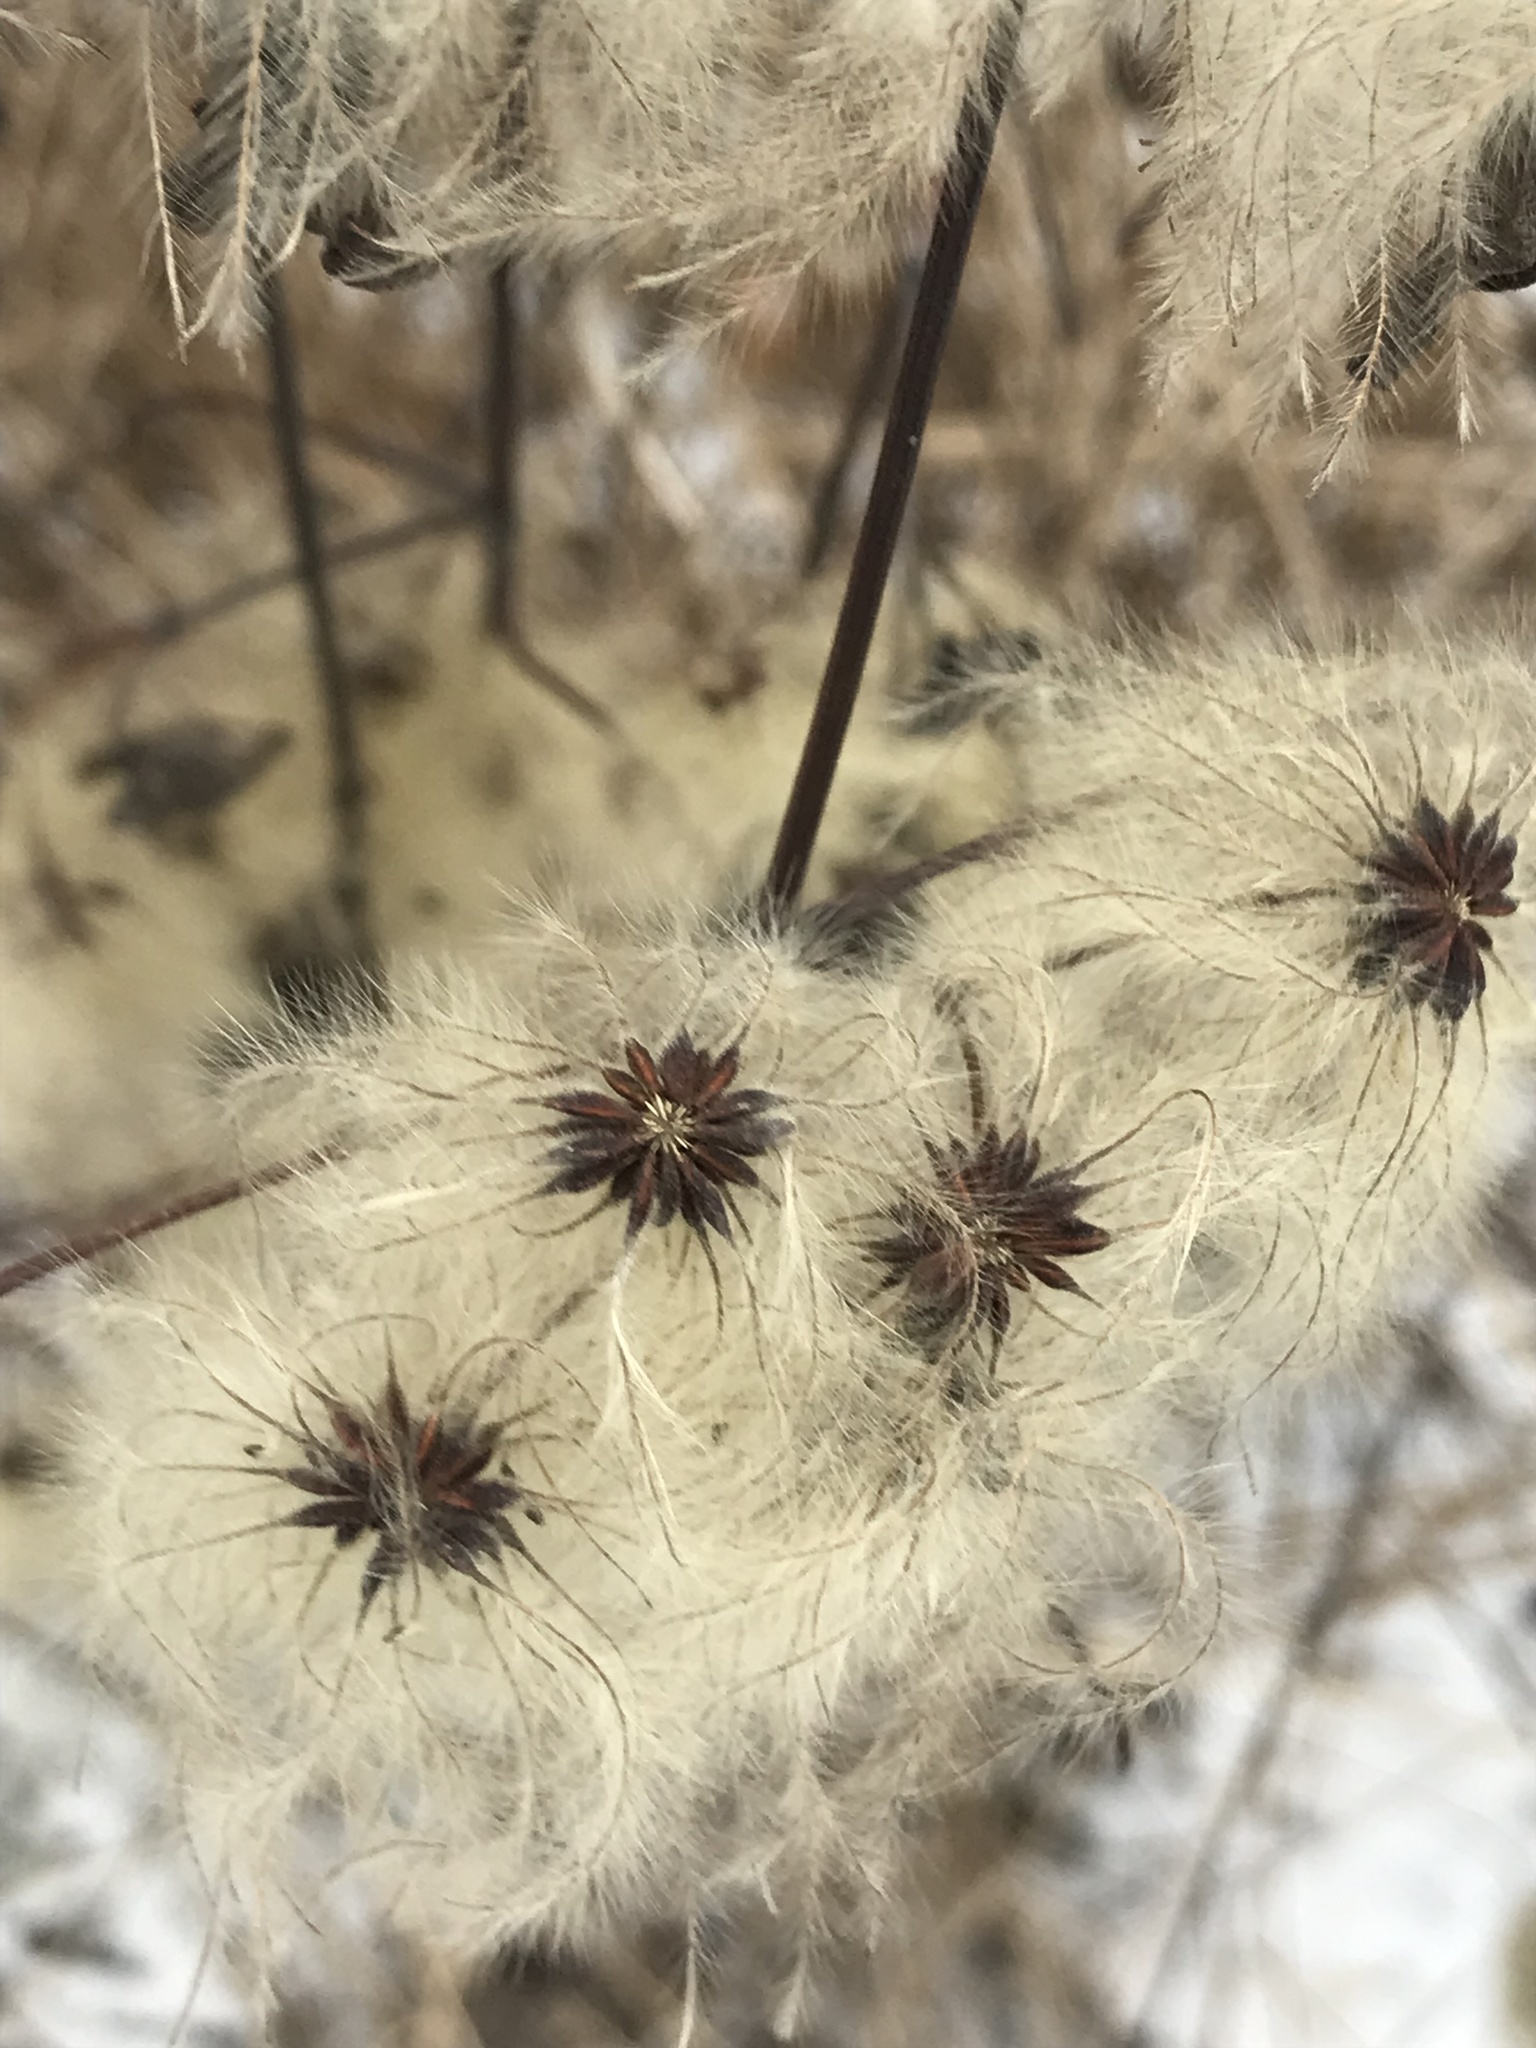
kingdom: Plantae
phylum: Tracheophyta
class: Magnoliopsida
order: Ranunculales
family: Ranunculaceae
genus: Clematis
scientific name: Clematis virginiana
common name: Virgin's-bower
